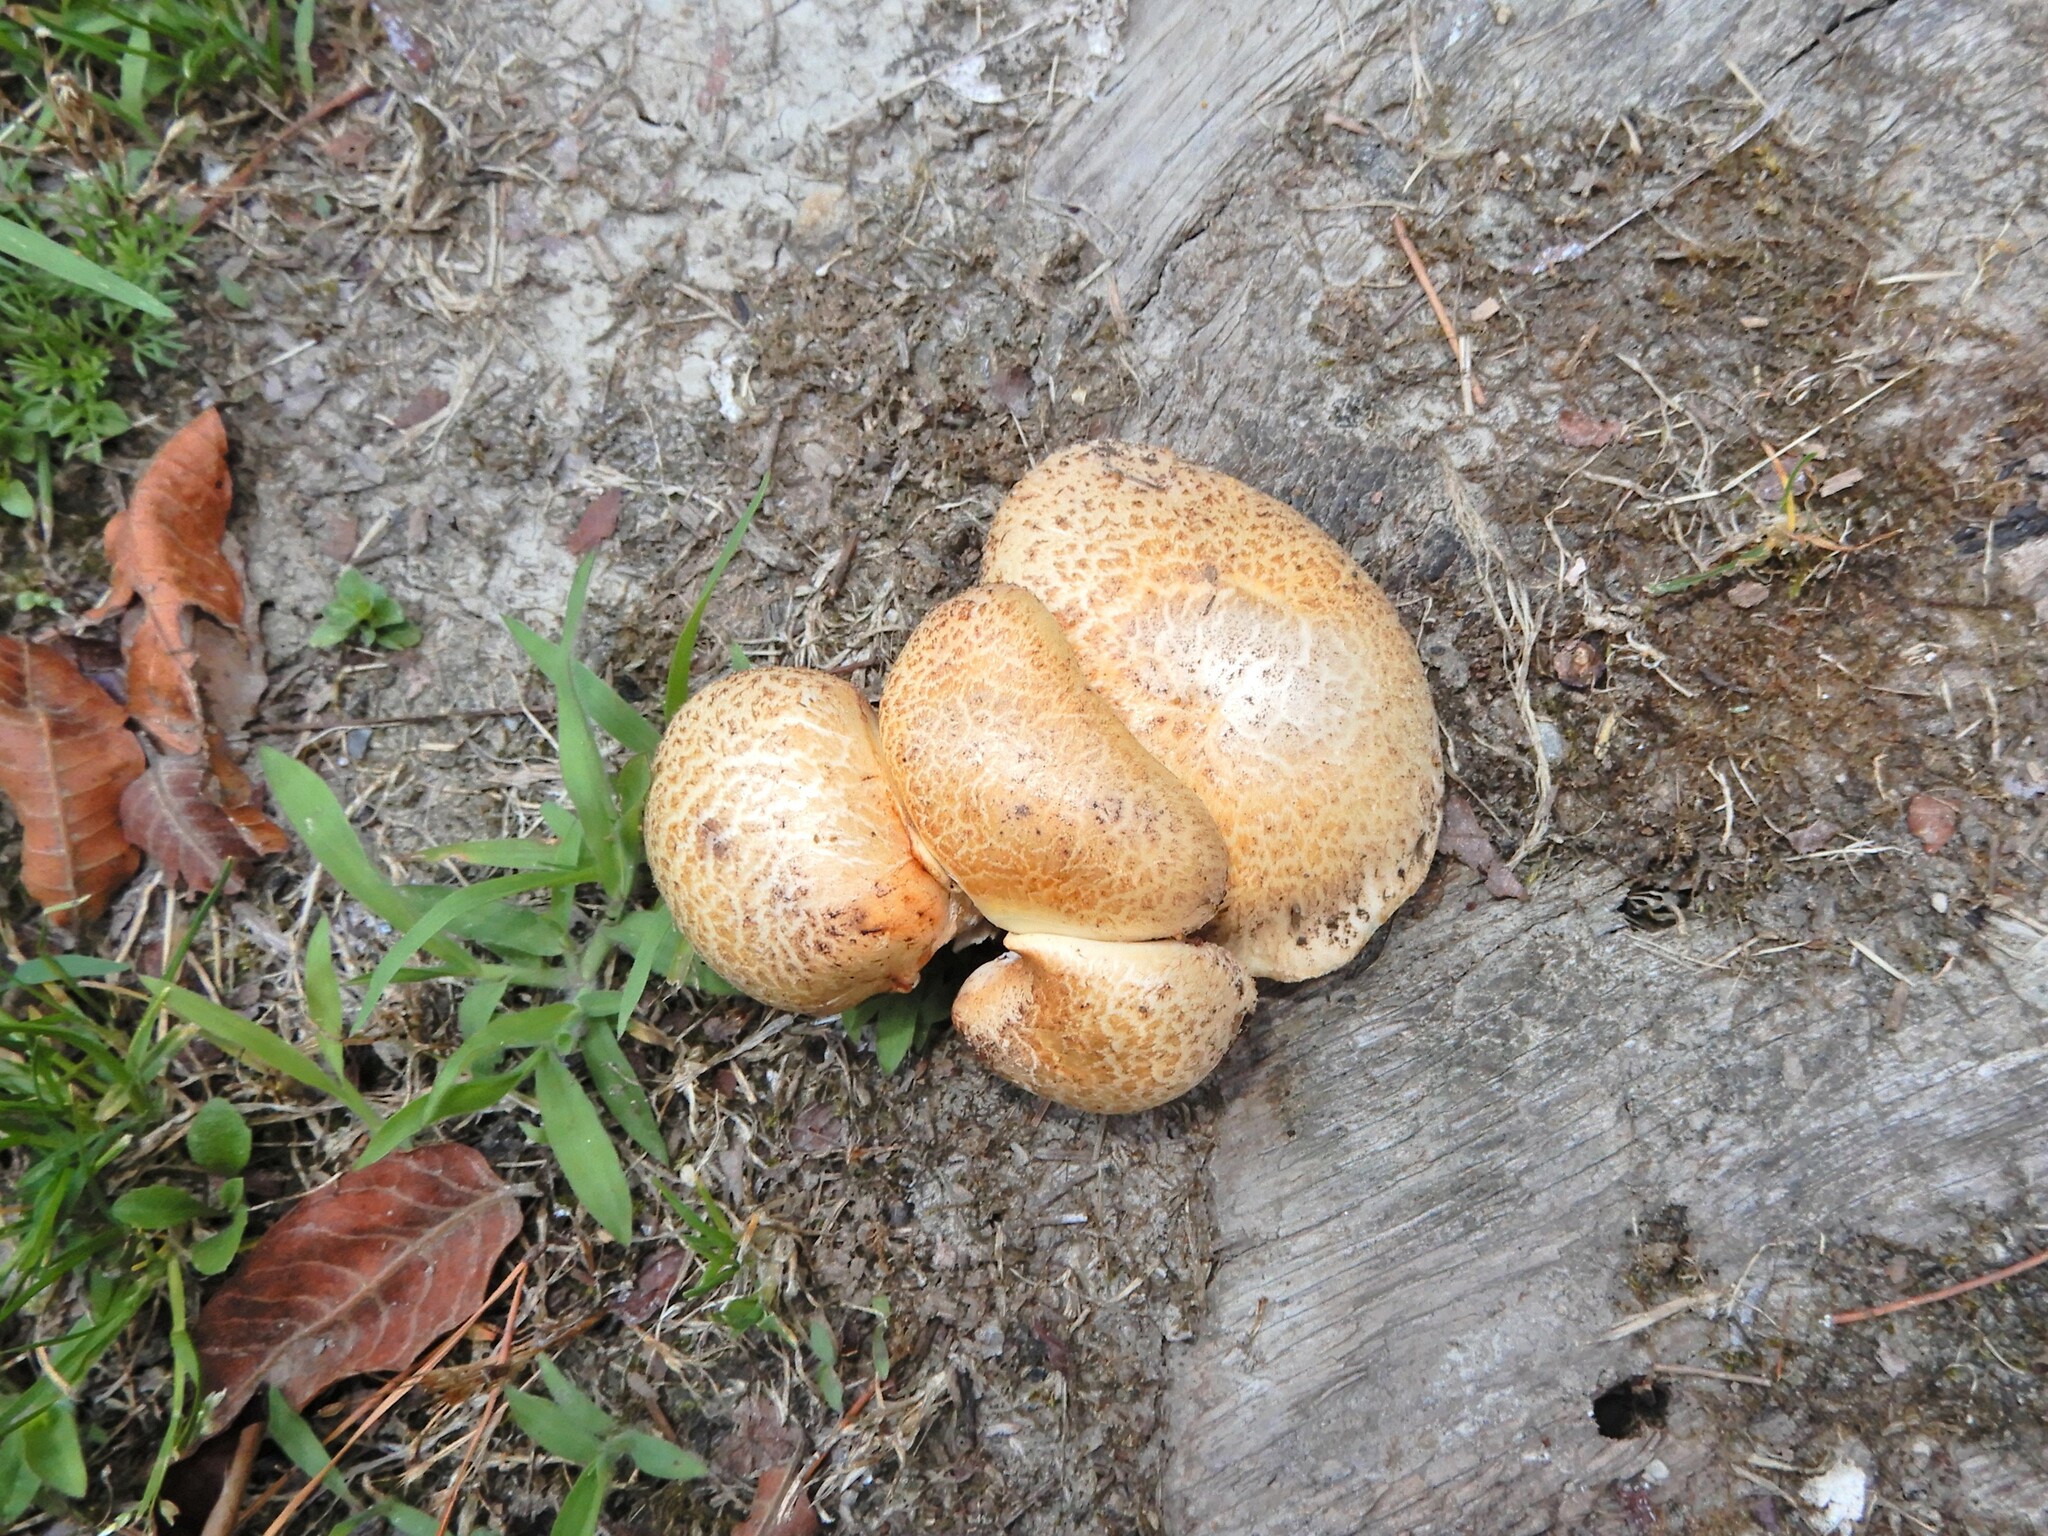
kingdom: Fungi
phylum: Basidiomycota
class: Agaricomycetes
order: Gloeophyllales
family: Gloeophyllaceae
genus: Neolentinus
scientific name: Neolentinus lepideus
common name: Scaly sawgill
